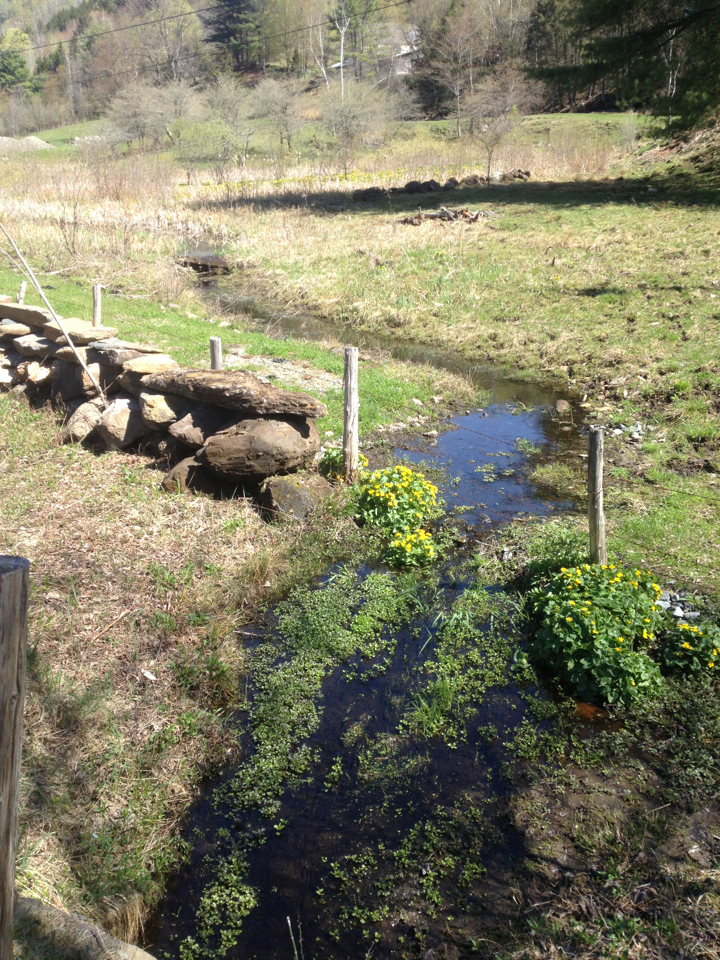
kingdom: Plantae
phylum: Tracheophyta
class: Magnoliopsida
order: Ranunculales
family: Ranunculaceae
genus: Caltha
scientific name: Caltha palustris
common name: Marsh marigold
